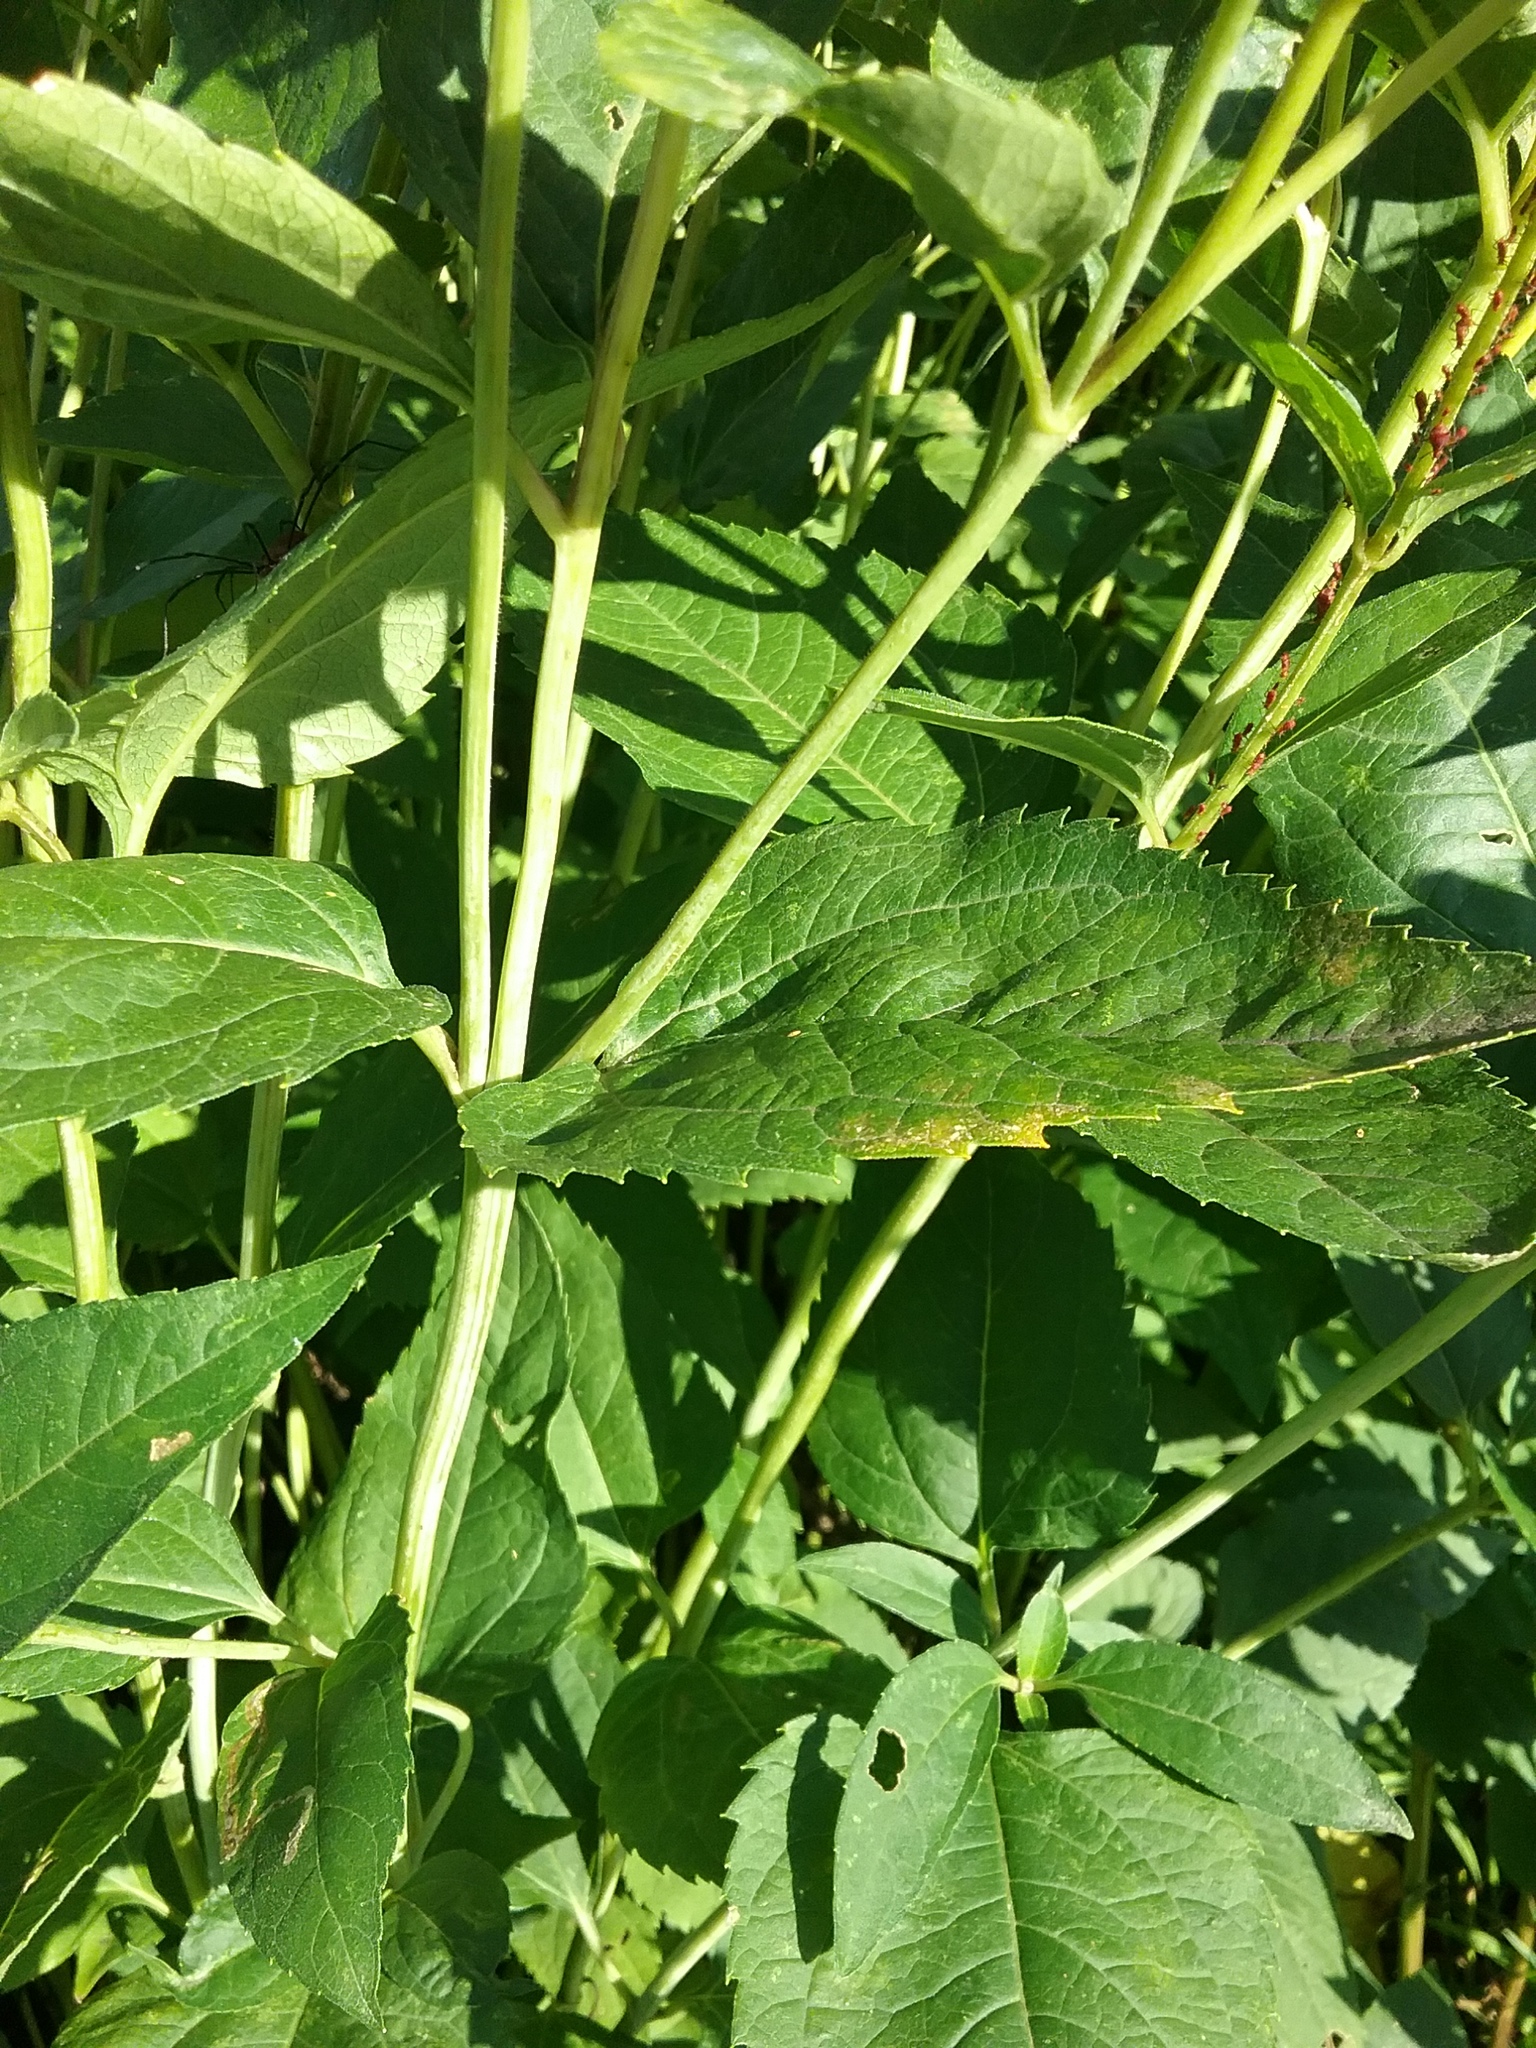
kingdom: Plantae
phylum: Tracheophyta
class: Magnoliopsida
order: Asterales
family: Asteraceae
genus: Heliopsis
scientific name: Heliopsis helianthoides
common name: False sunflower
